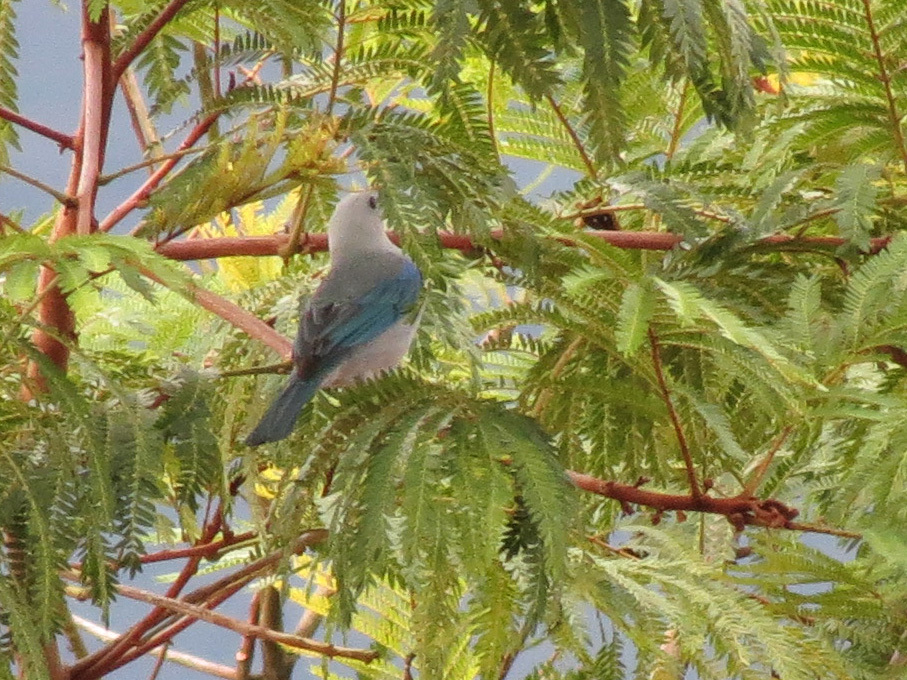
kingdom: Animalia
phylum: Chordata
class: Aves
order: Passeriformes
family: Thraupidae
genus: Thraupis
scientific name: Thraupis episcopus
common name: Blue-grey tanager
